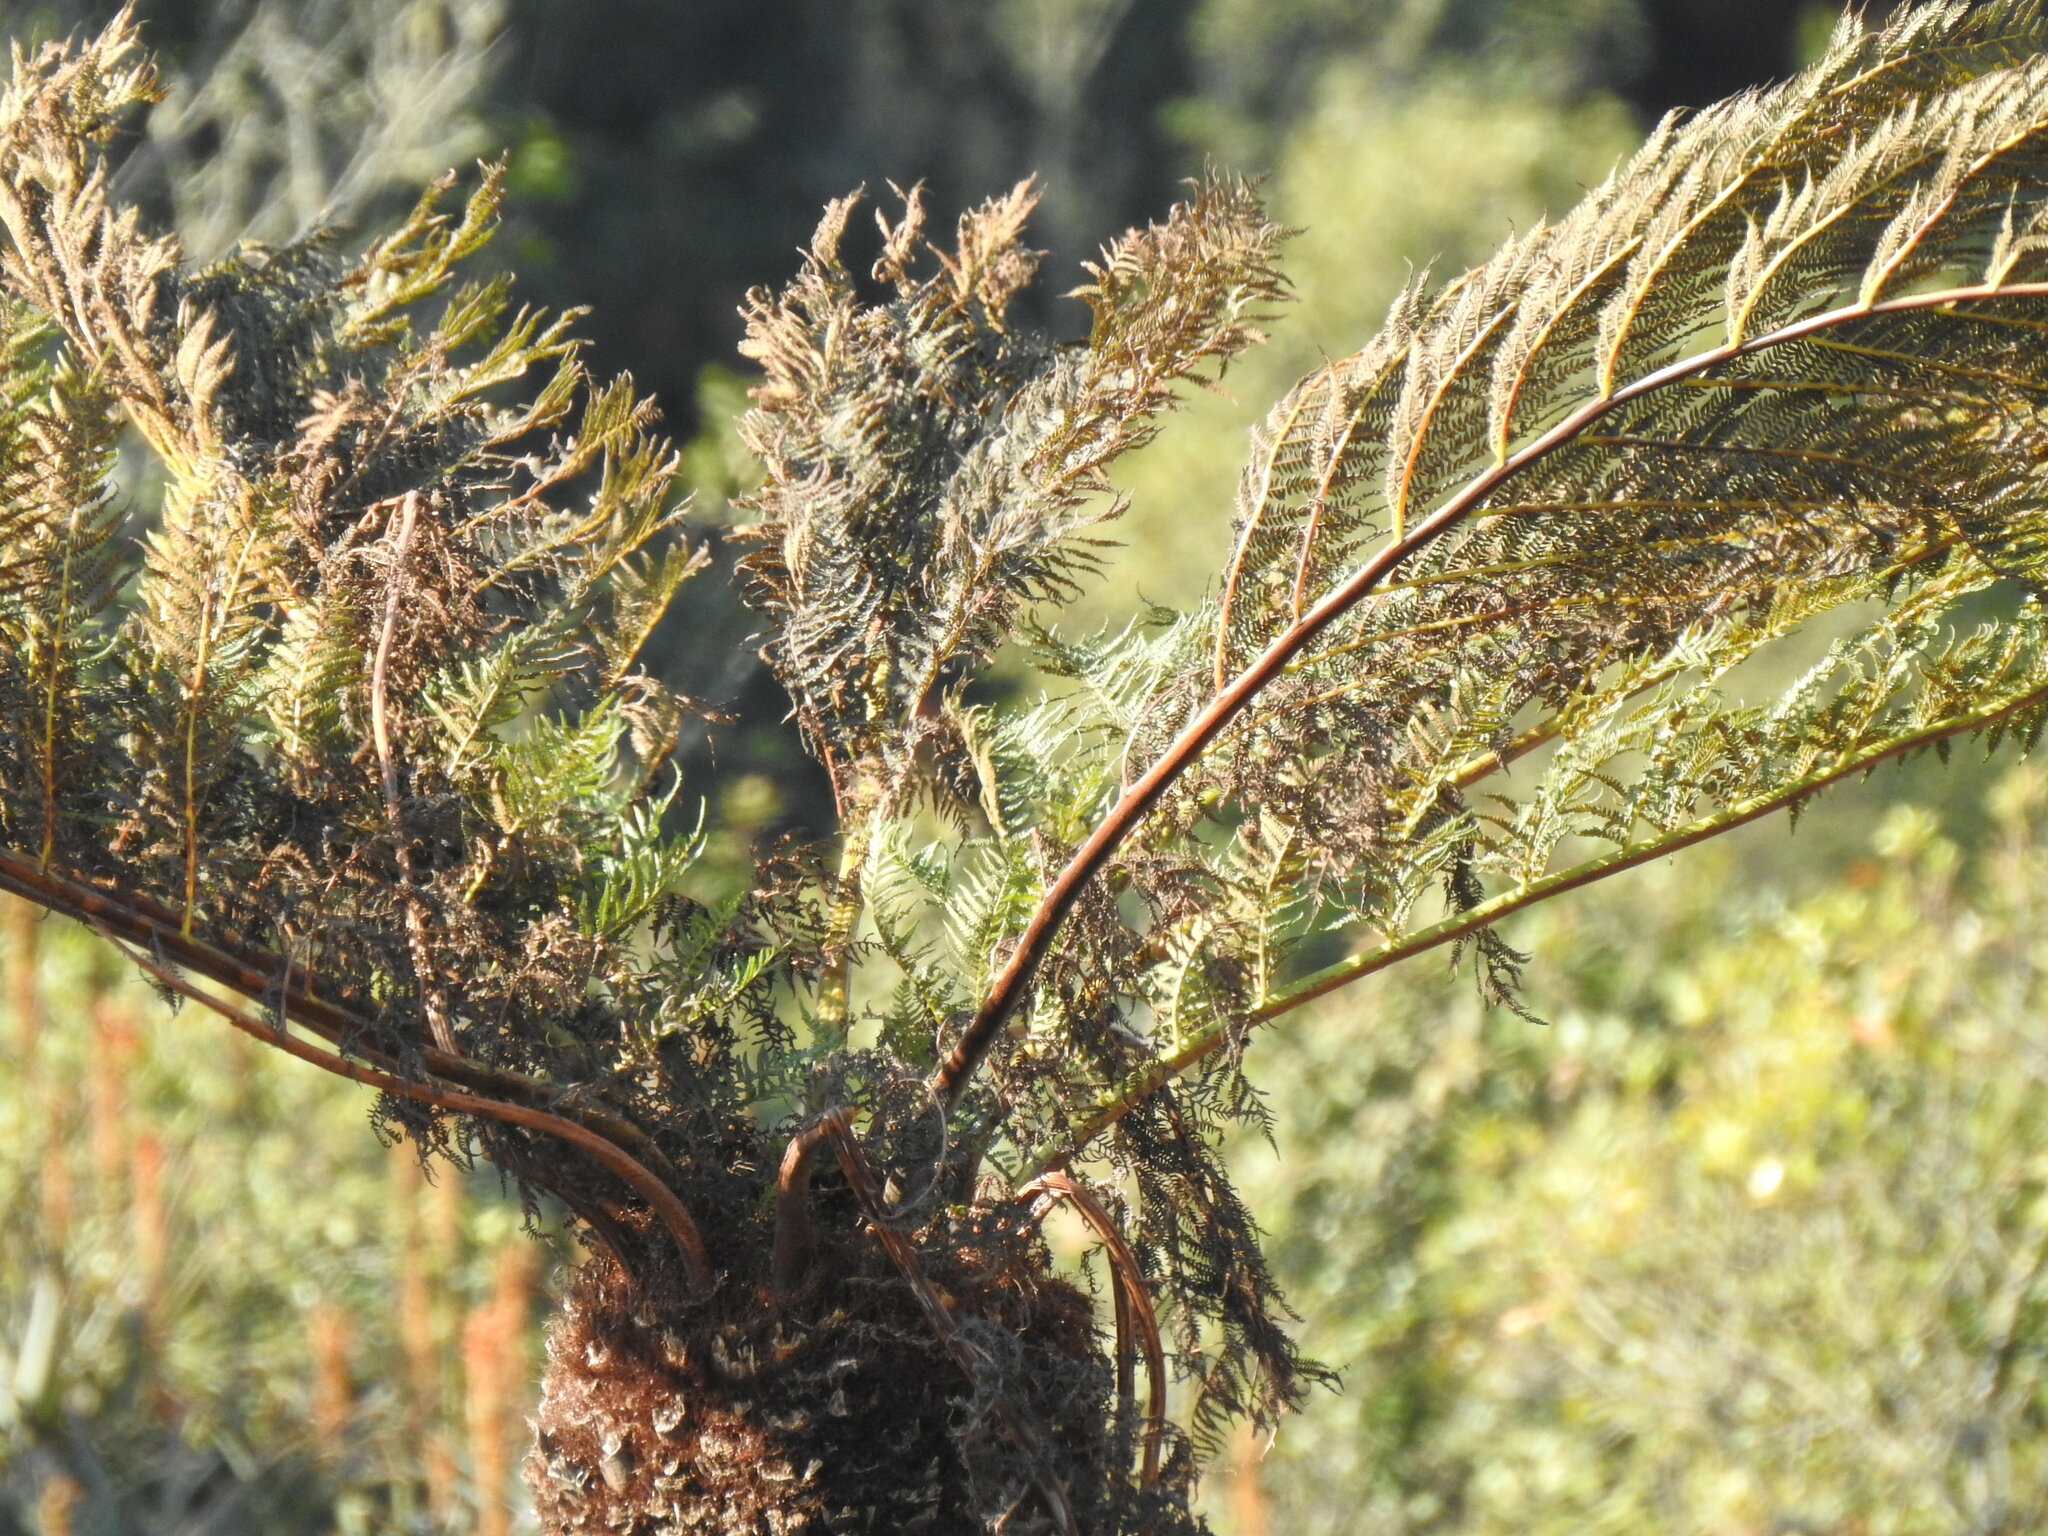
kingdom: Plantae
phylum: Tracheophyta
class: Polypodiopsida
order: Cyatheales
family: Cyatheaceae
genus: Alsophila
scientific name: Alsophila dregei
